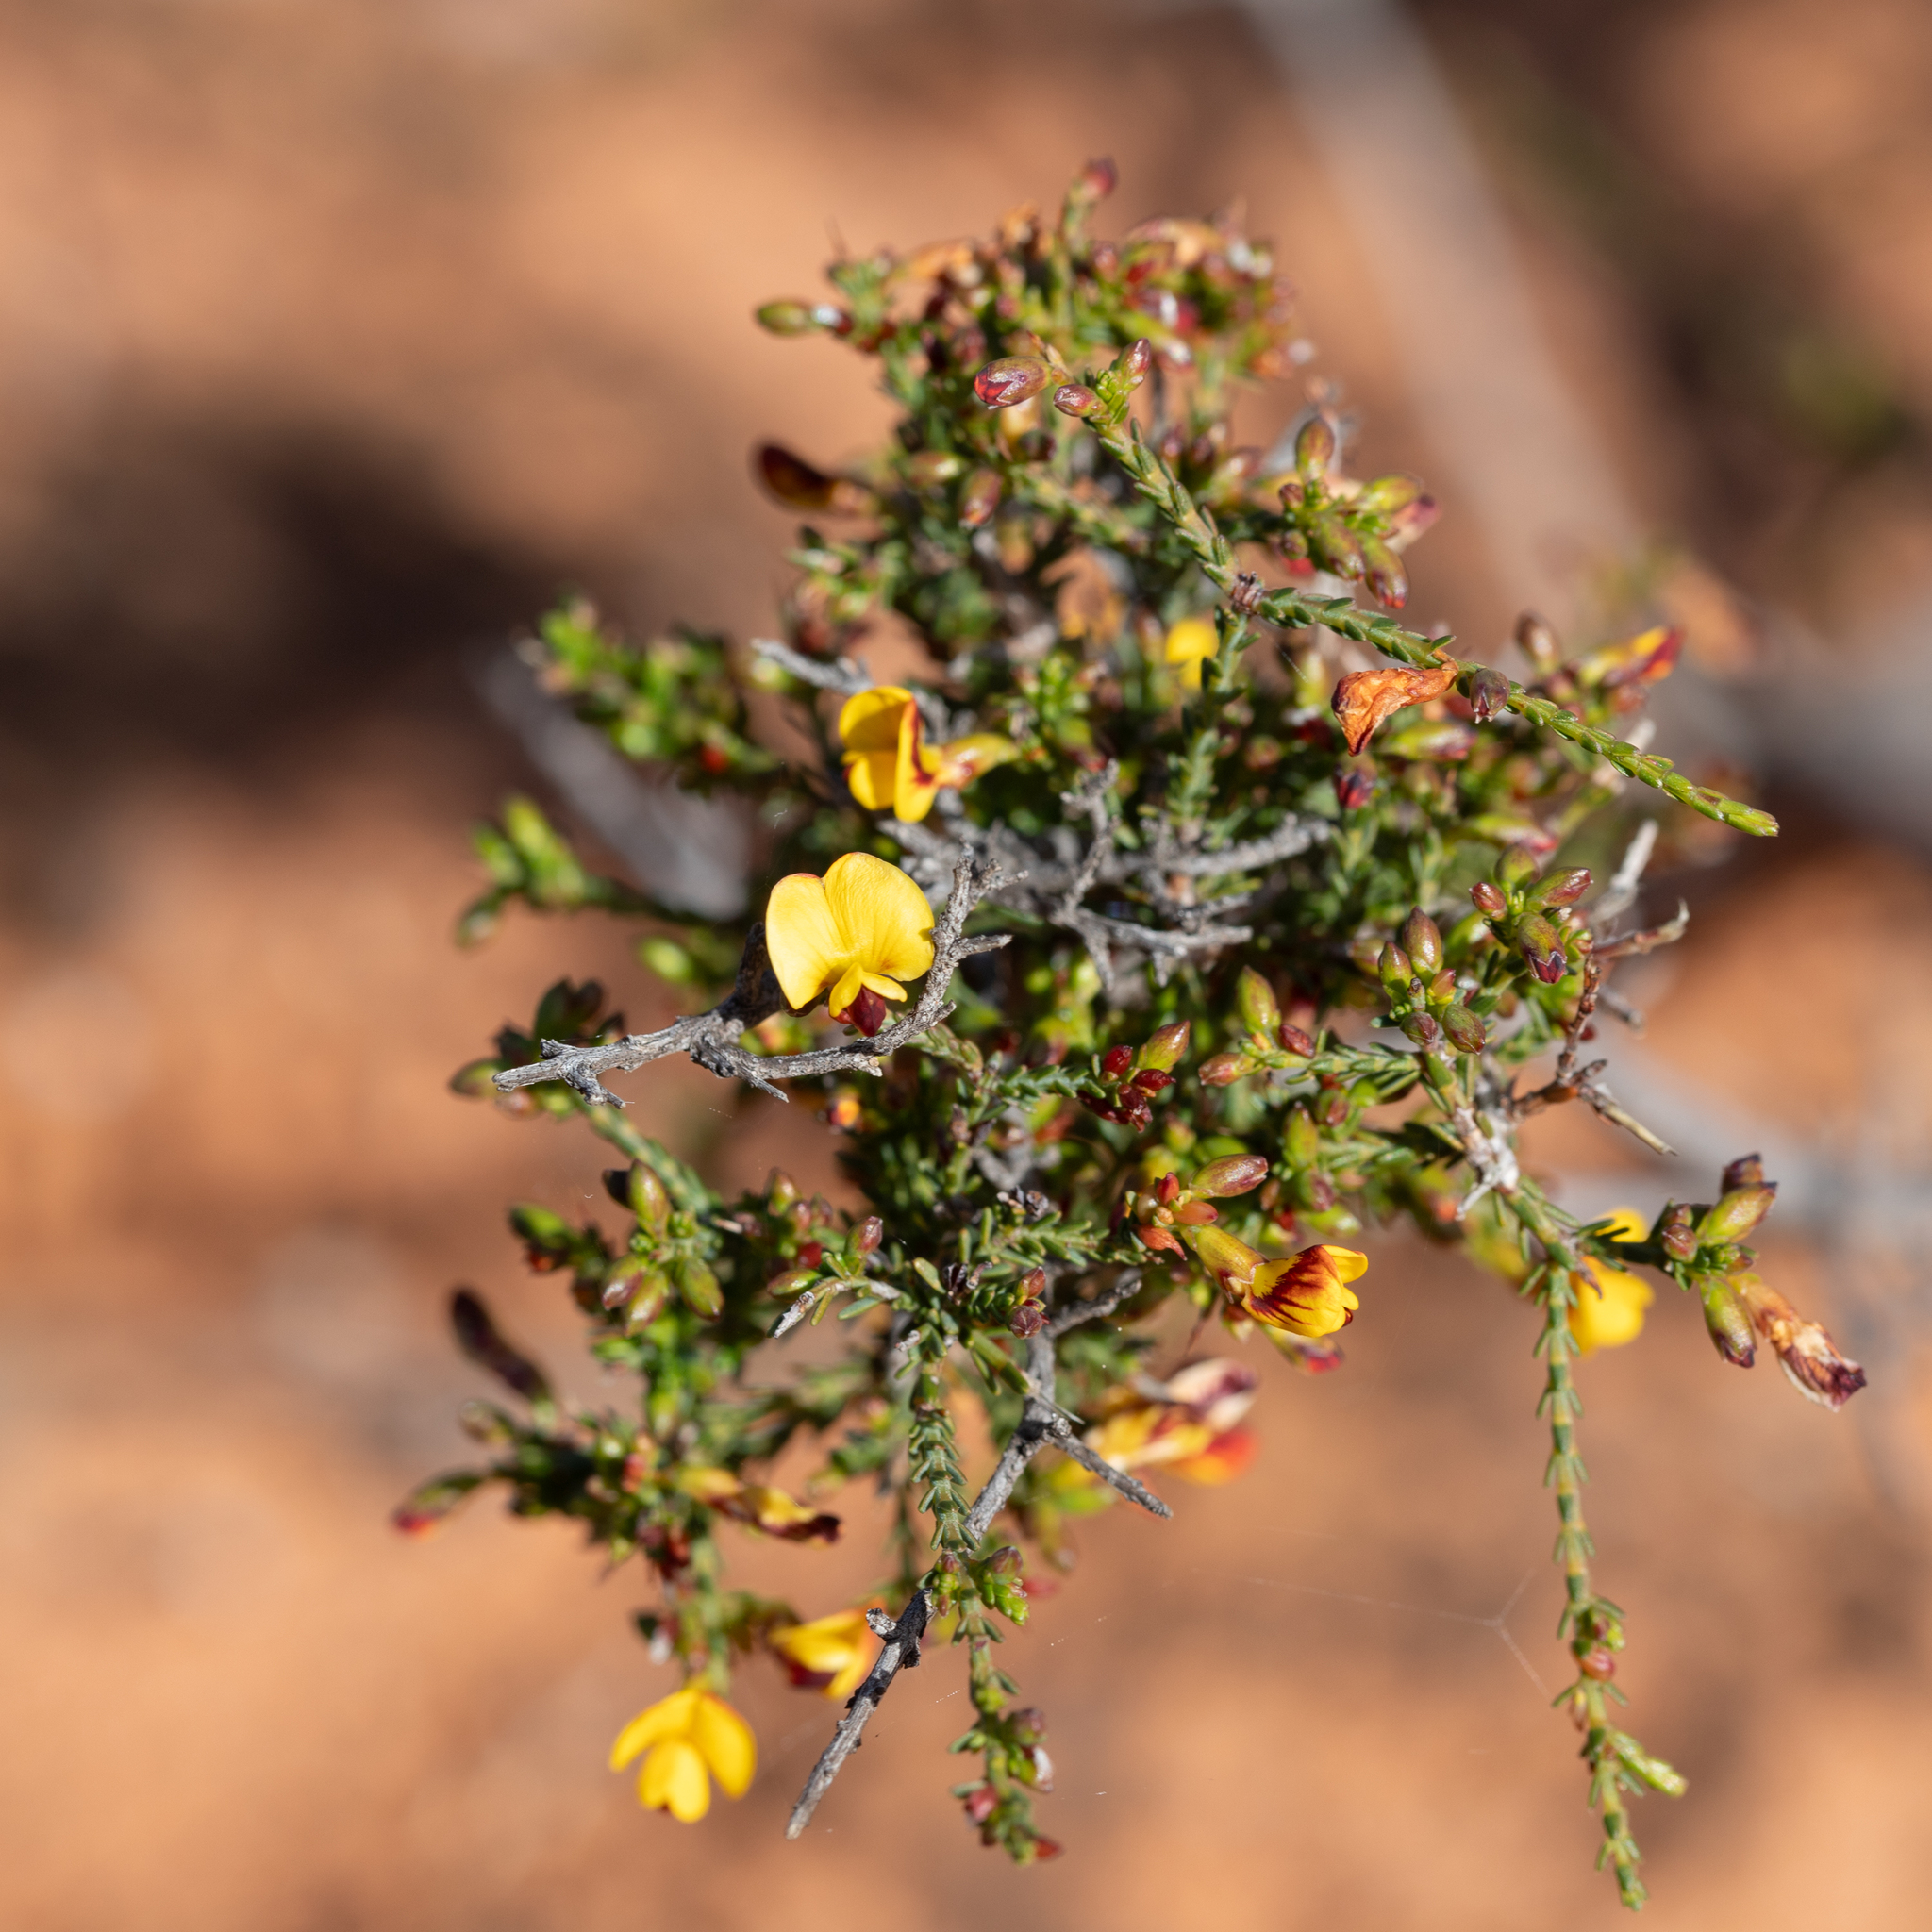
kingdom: Plantae
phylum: Tracheophyta
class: Magnoliopsida
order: Fabales
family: Fabaceae
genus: Eutaxia
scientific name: Eutaxia microphylla
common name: Mallee bush-pea
